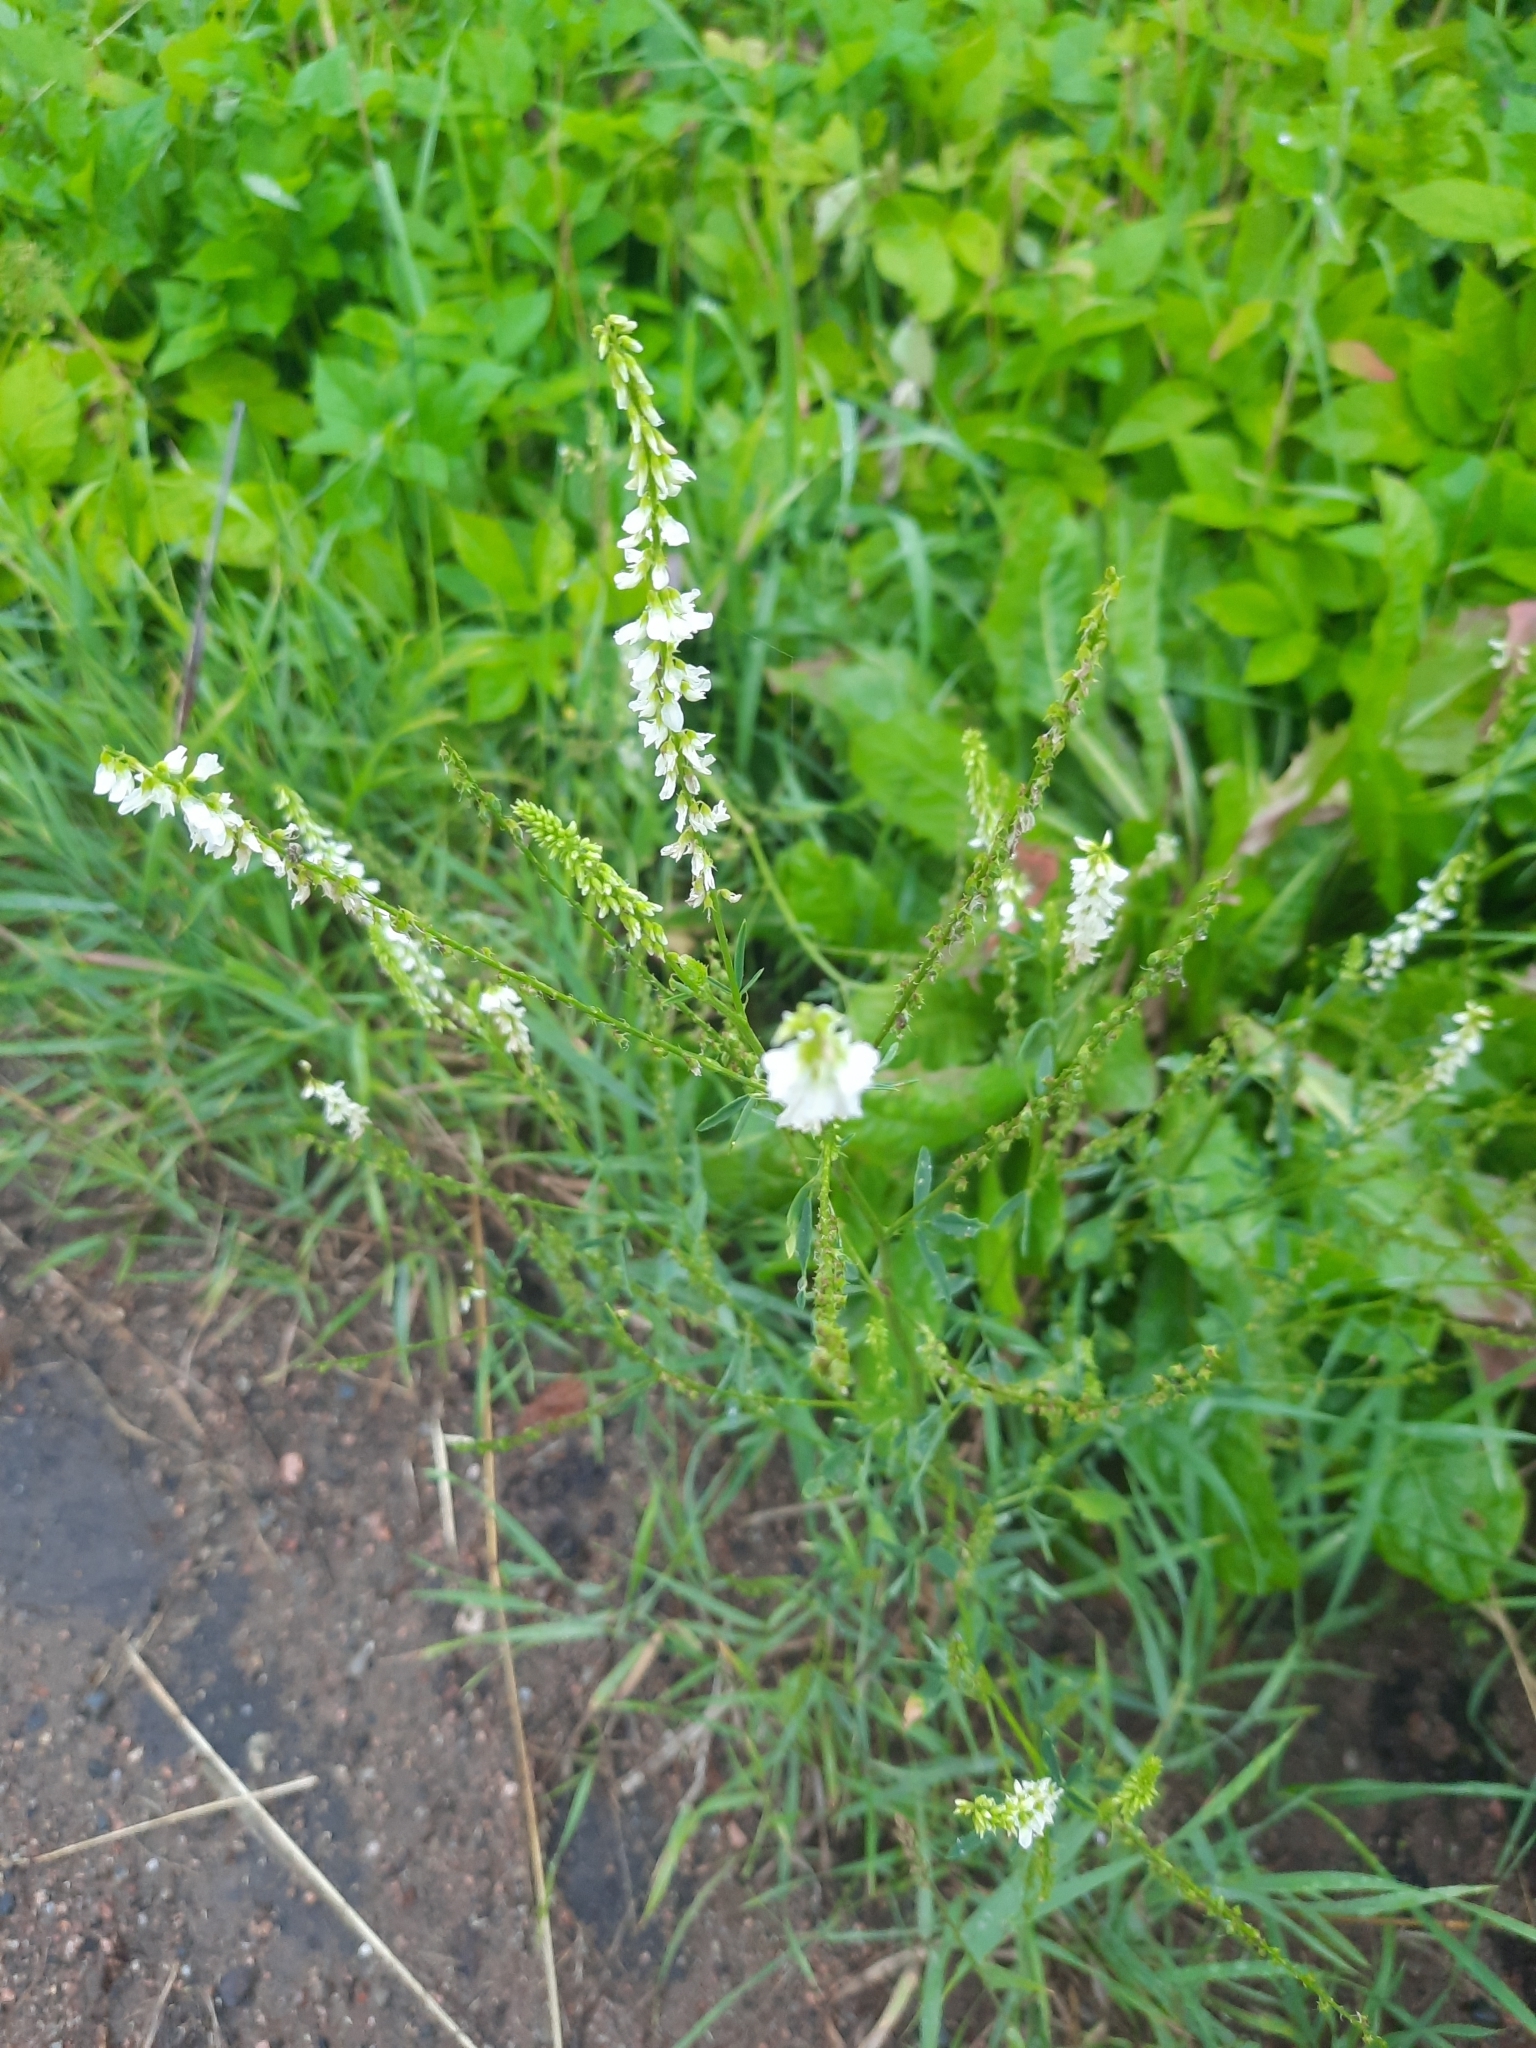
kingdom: Plantae
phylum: Tracheophyta
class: Magnoliopsida
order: Fabales
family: Fabaceae
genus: Melilotus
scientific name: Melilotus albus
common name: White melilot
